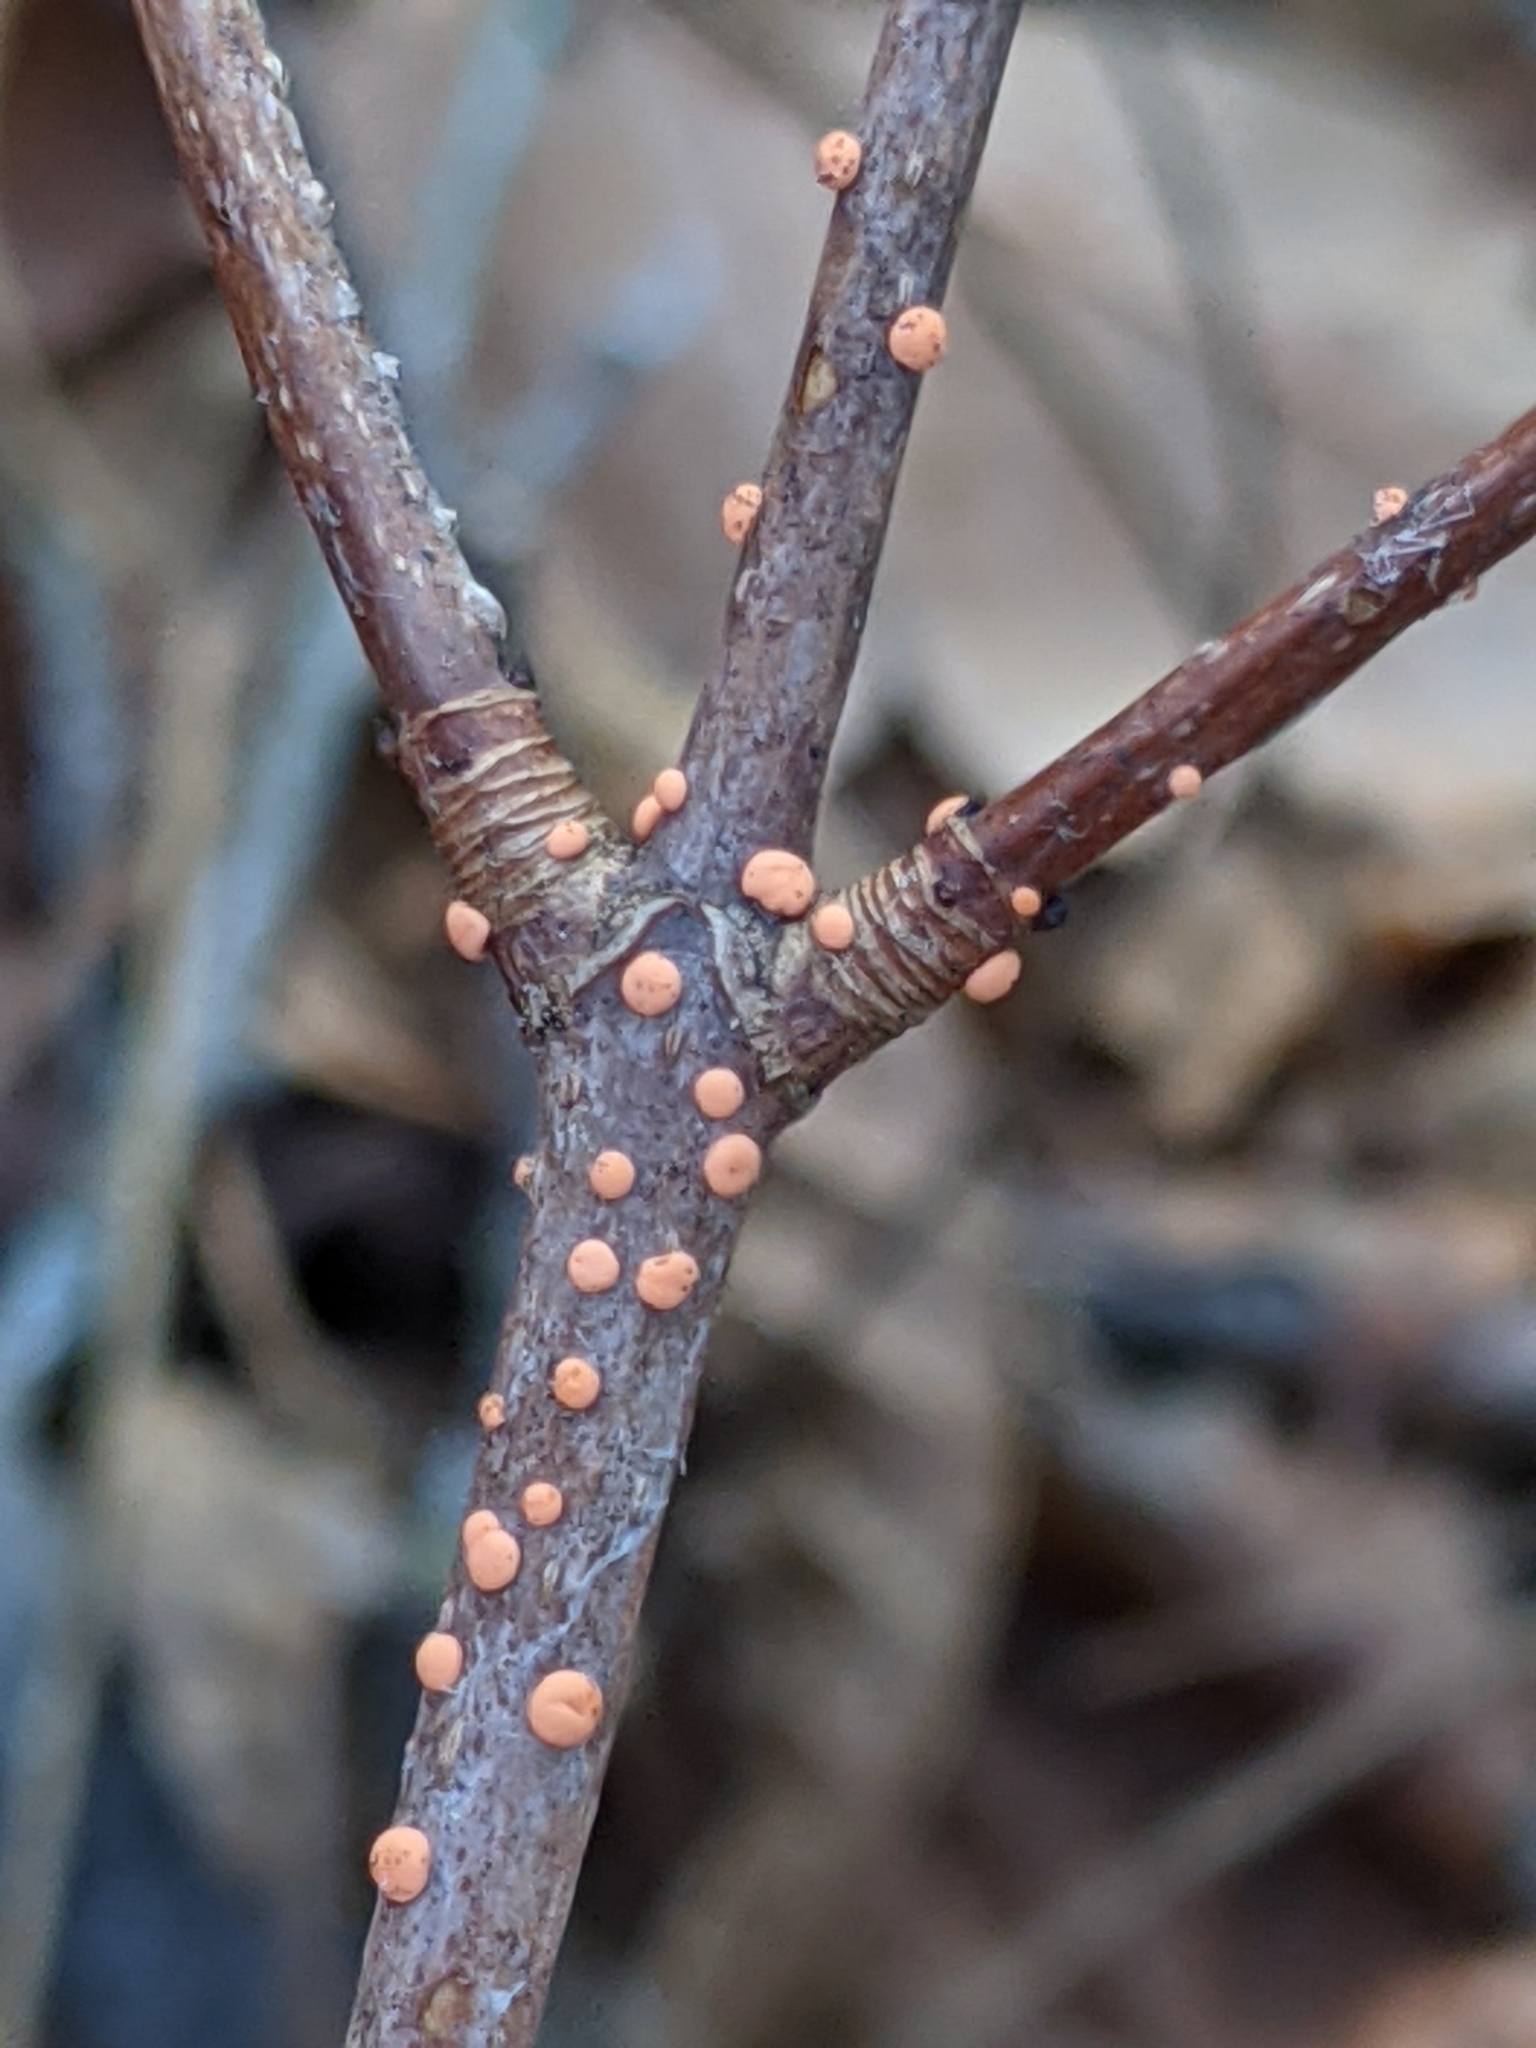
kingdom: Fungi
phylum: Ascomycota
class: Sordariomycetes
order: Hypocreales
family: Nectriaceae
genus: Nectria
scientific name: Nectria cinnabarina
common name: Coral spot
